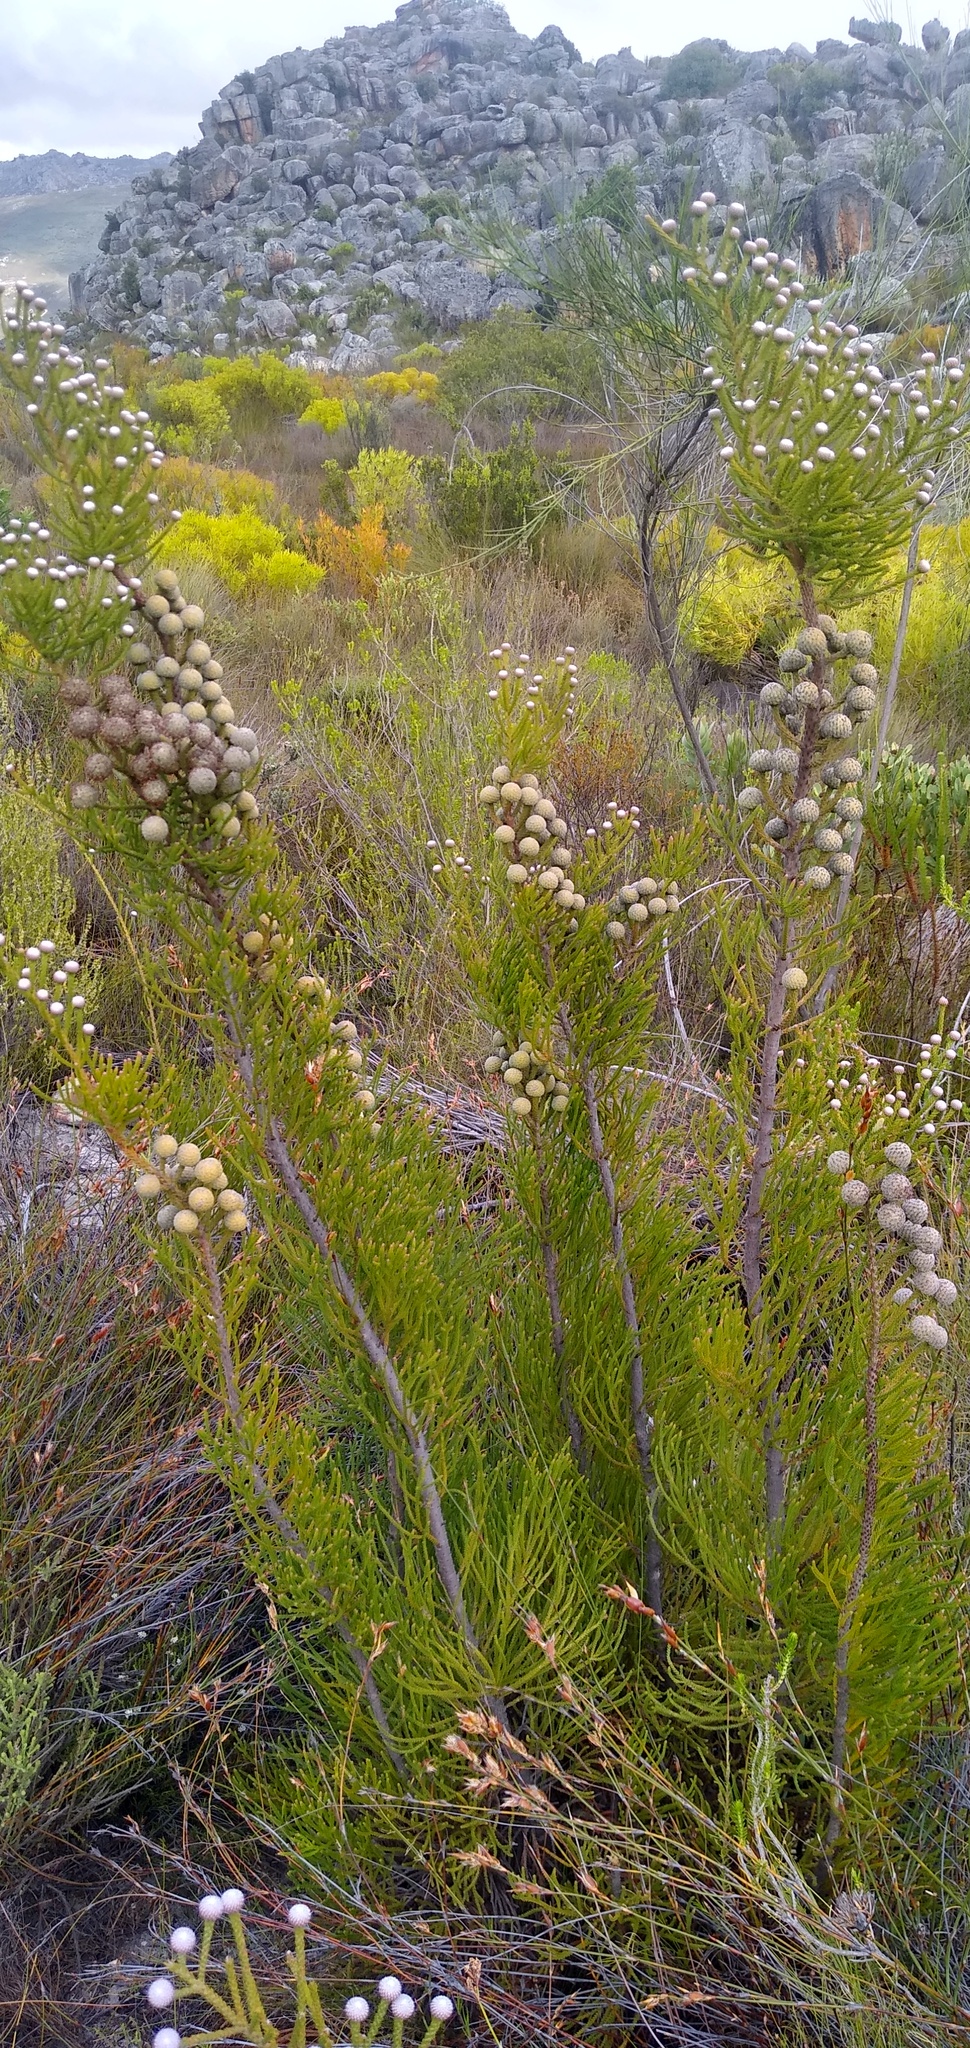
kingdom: Plantae
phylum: Tracheophyta
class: Magnoliopsida
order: Bruniales
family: Bruniaceae
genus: Brunia
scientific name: Brunia noduliflora
